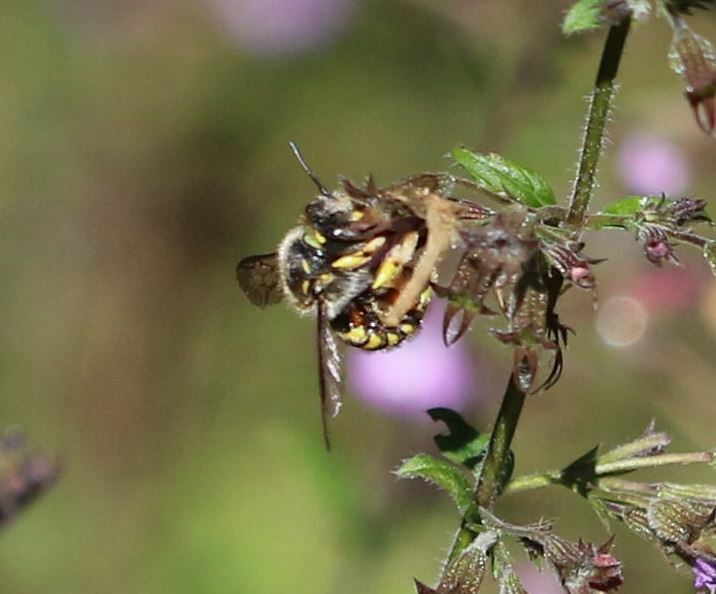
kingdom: Animalia
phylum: Arthropoda
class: Insecta
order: Hymenoptera
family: Megachilidae
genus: Anthidium
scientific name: Anthidium manicatum
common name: Wool carder bee
